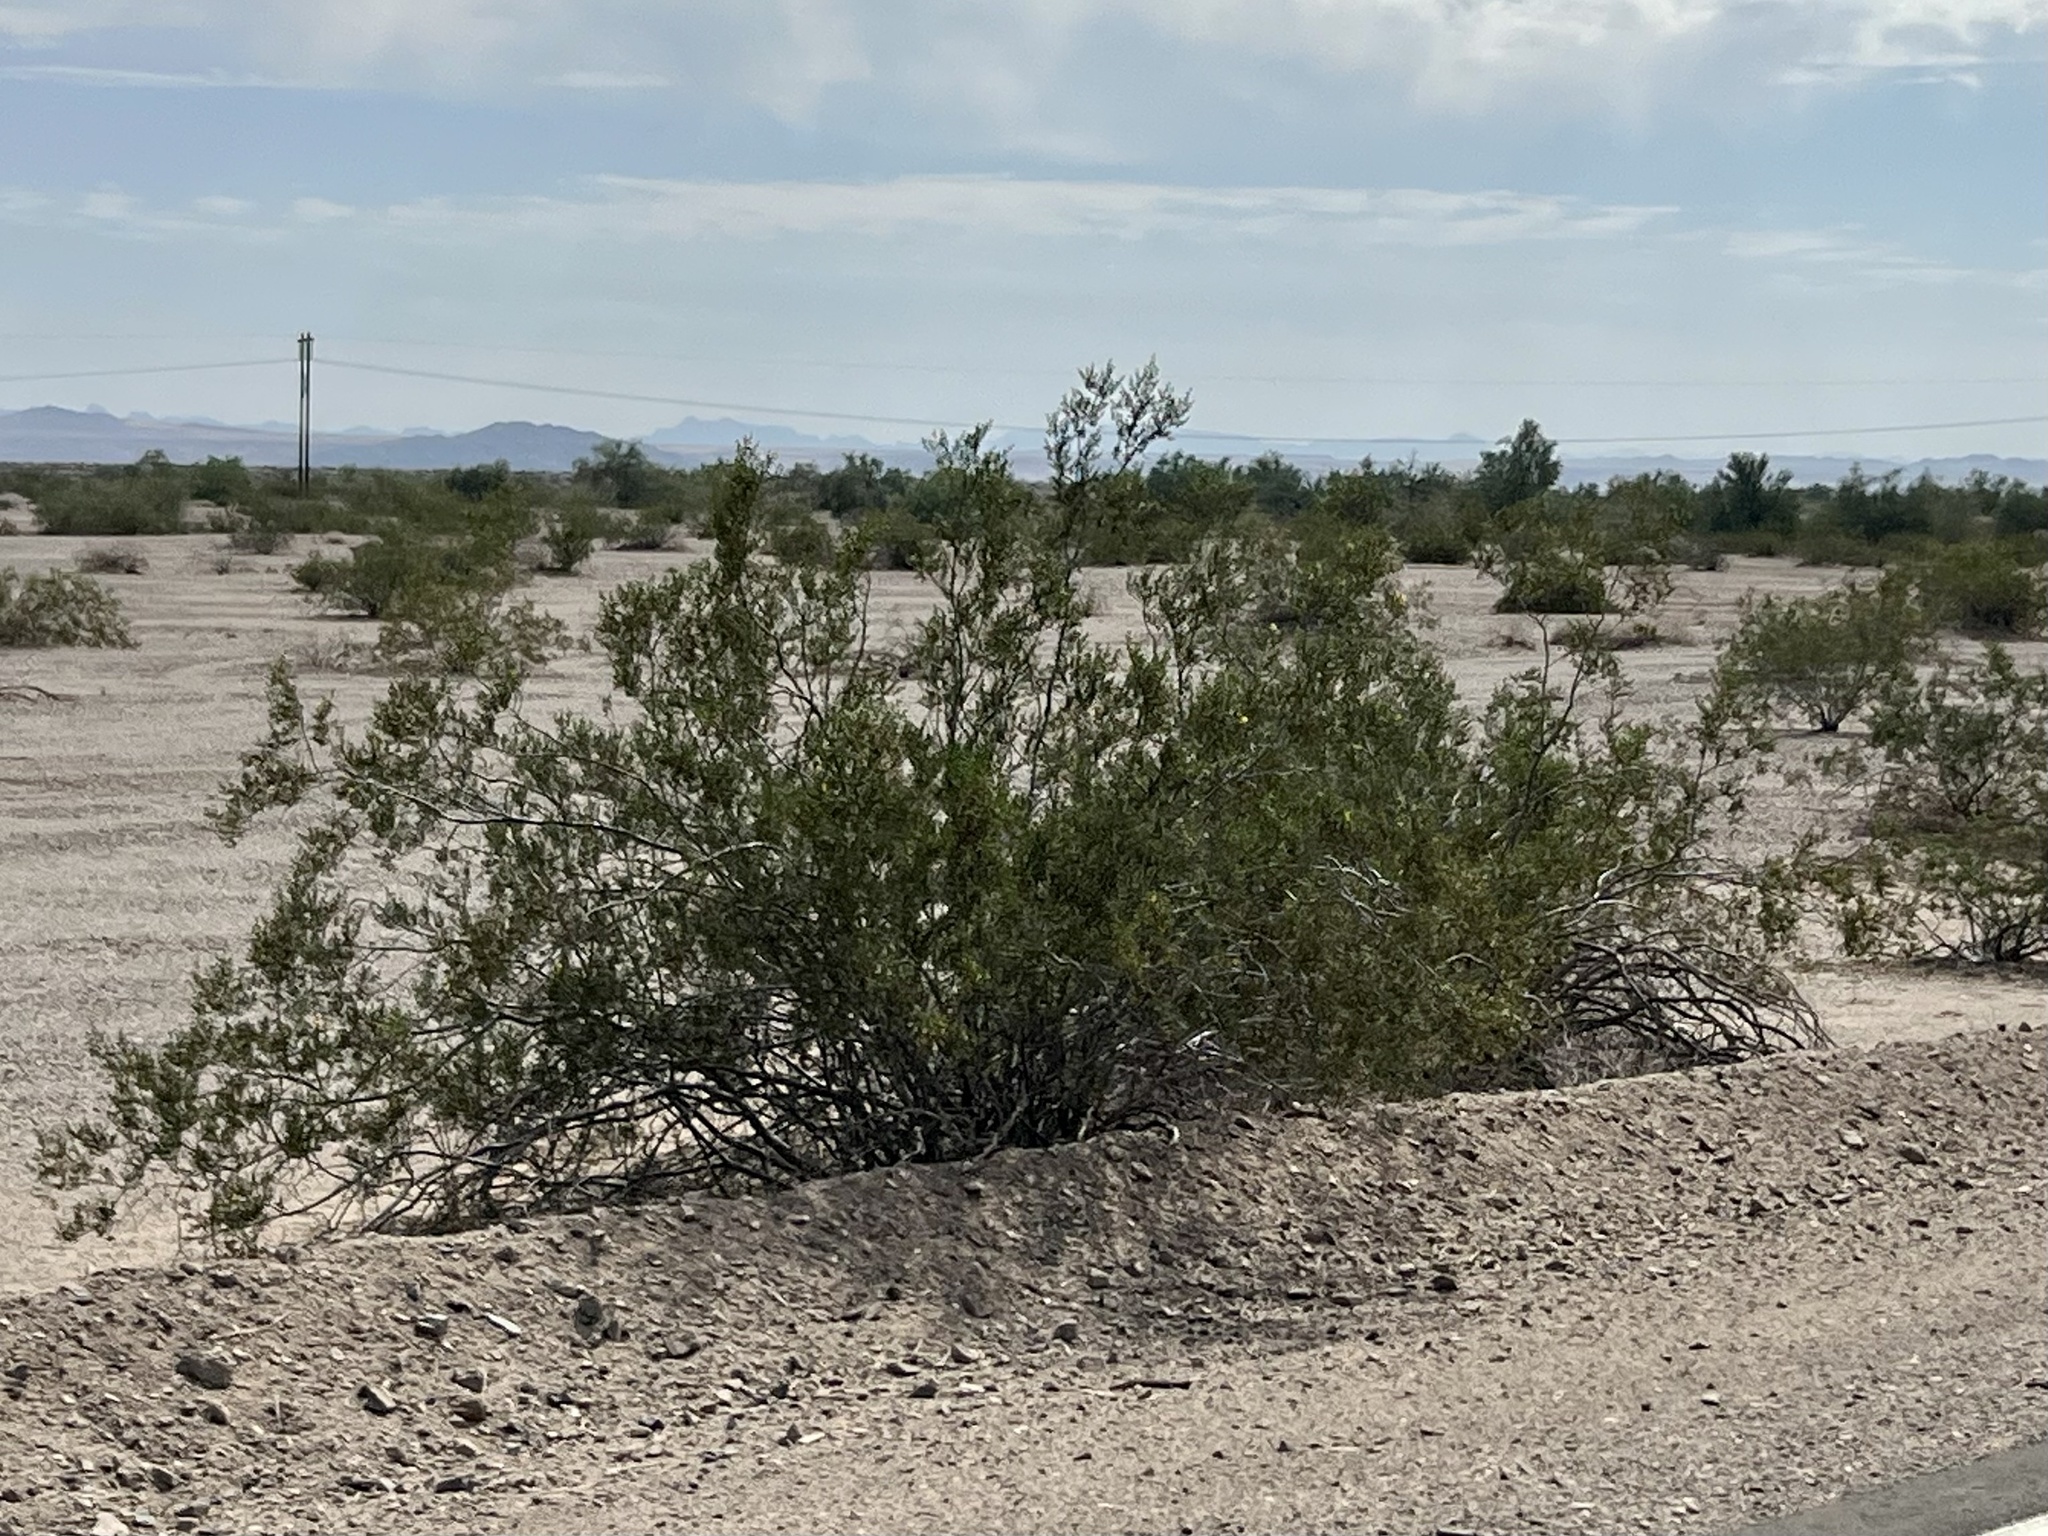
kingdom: Plantae
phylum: Tracheophyta
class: Magnoliopsida
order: Zygophyllales
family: Zygophyllaceae
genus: Larrea
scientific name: Larrea tridentata
